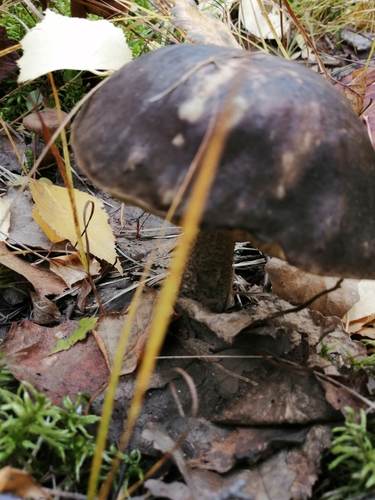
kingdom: Fungi
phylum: Basidiomycota
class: Agaricomycetes
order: Boletales
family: Boletaceae
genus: Leccinum
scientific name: Leccinum variicolor
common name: Mottled bolete
